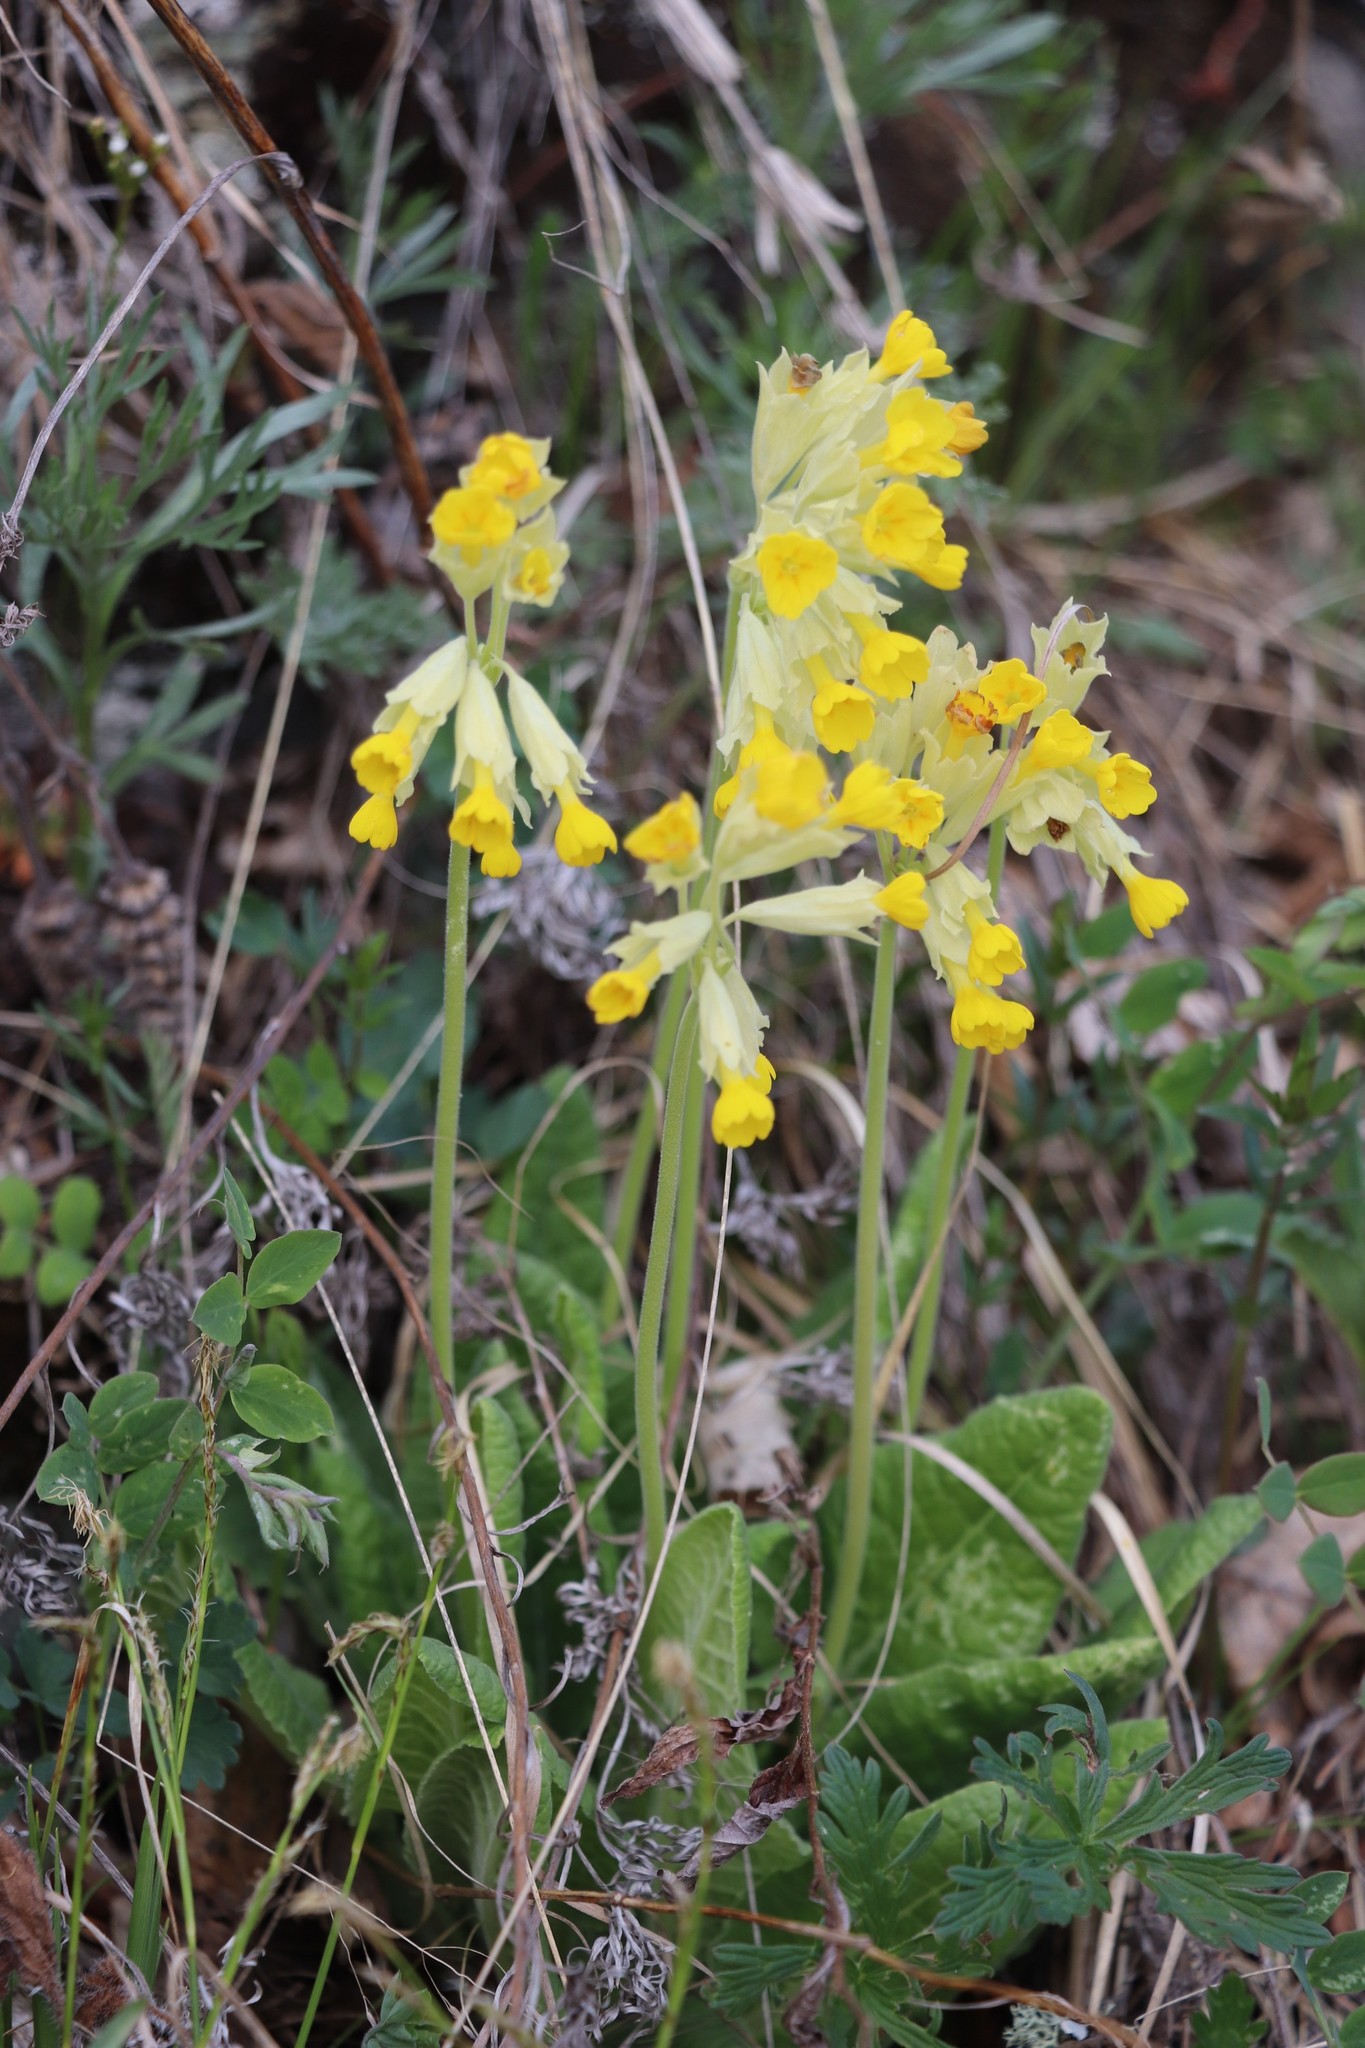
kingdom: Plantae
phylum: Tracheophyta
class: Magnoliopsida
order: Ericales
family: Primulaceae
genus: Primula
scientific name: Primula veris
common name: Cowslip
